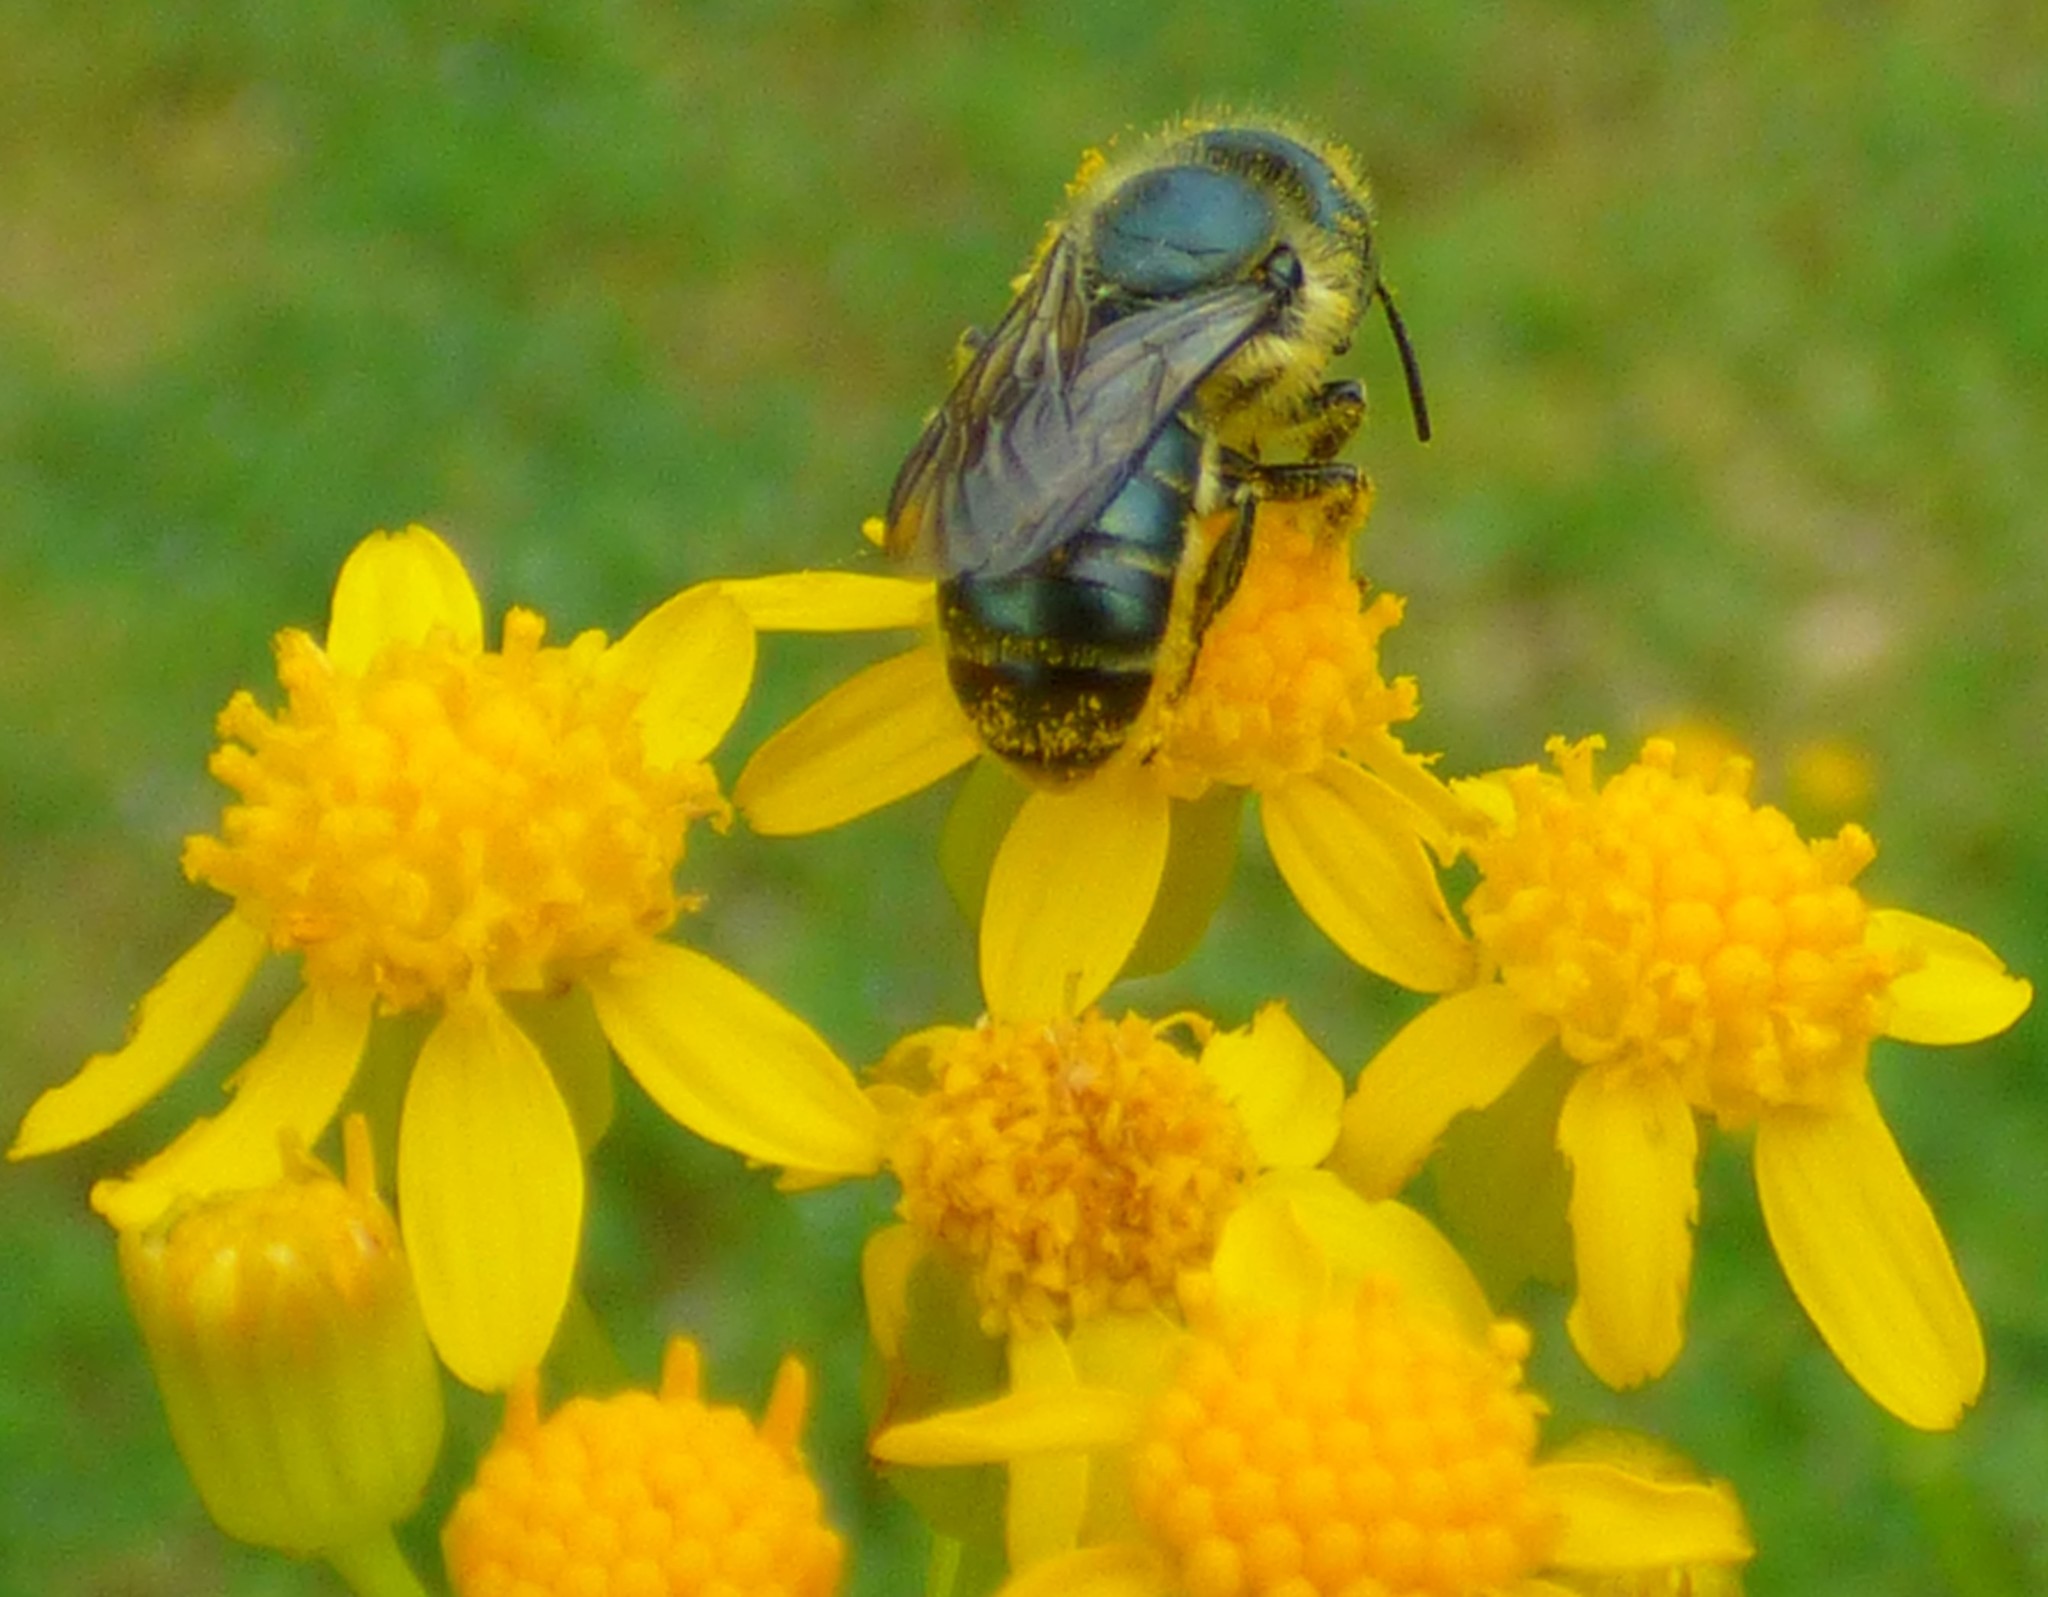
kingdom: Animalia
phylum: Arthropoda
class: Insecta
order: Hymenoptera
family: Megachilidae
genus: Osmia
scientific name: Osmia georgica
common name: Georgia mason
